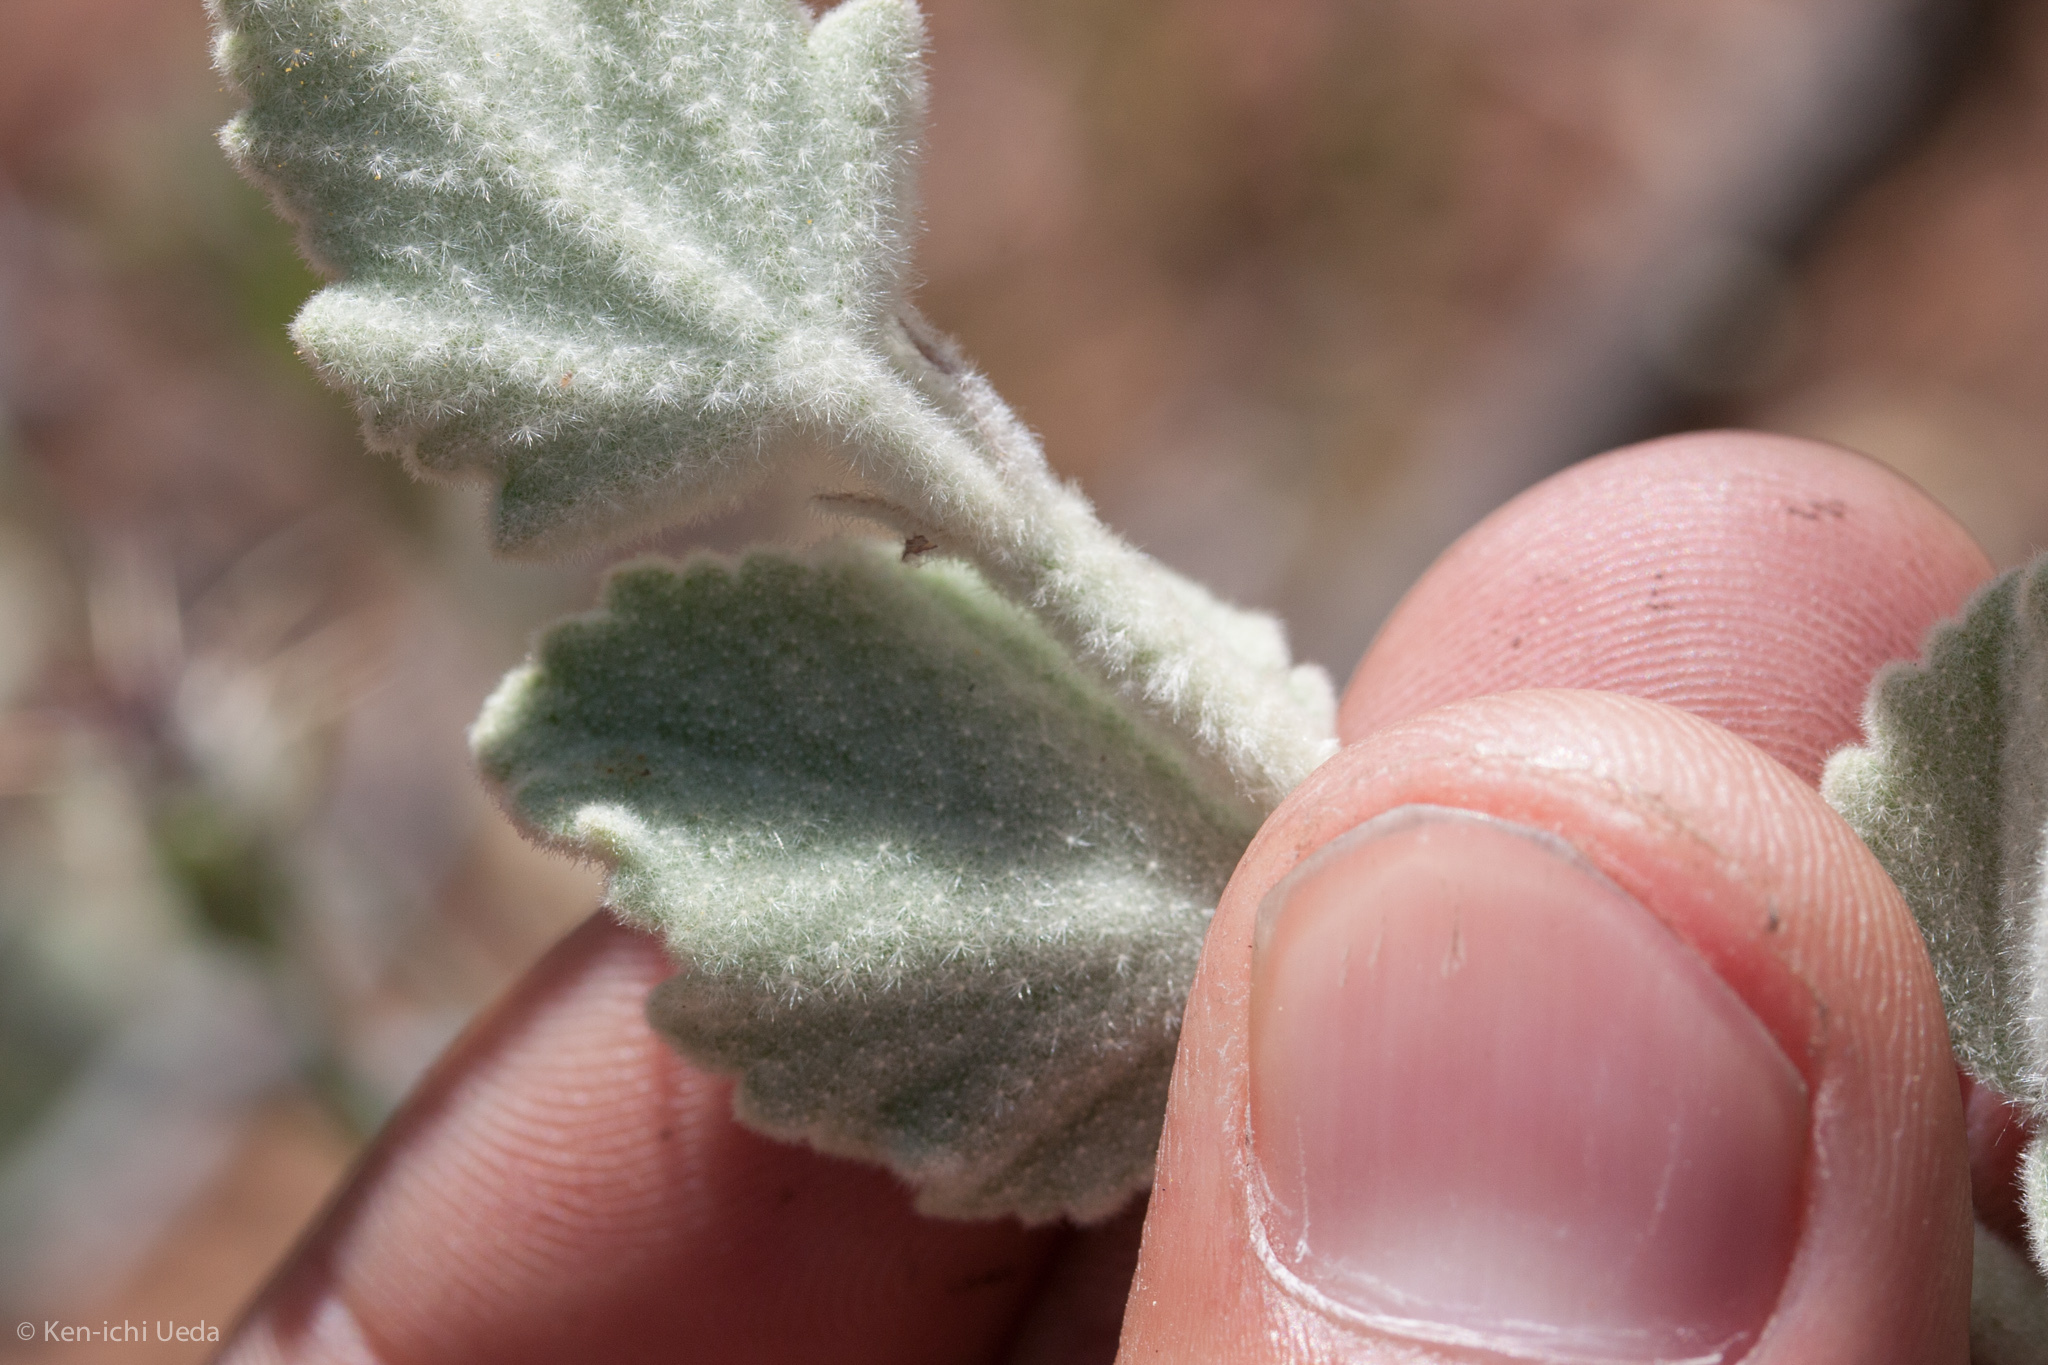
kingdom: Plantae
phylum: Tracheophyta
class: Magnoliopsida
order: Malvales
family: Malvaceae
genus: Malacothamnus
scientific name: Malacothamnus fremontii
